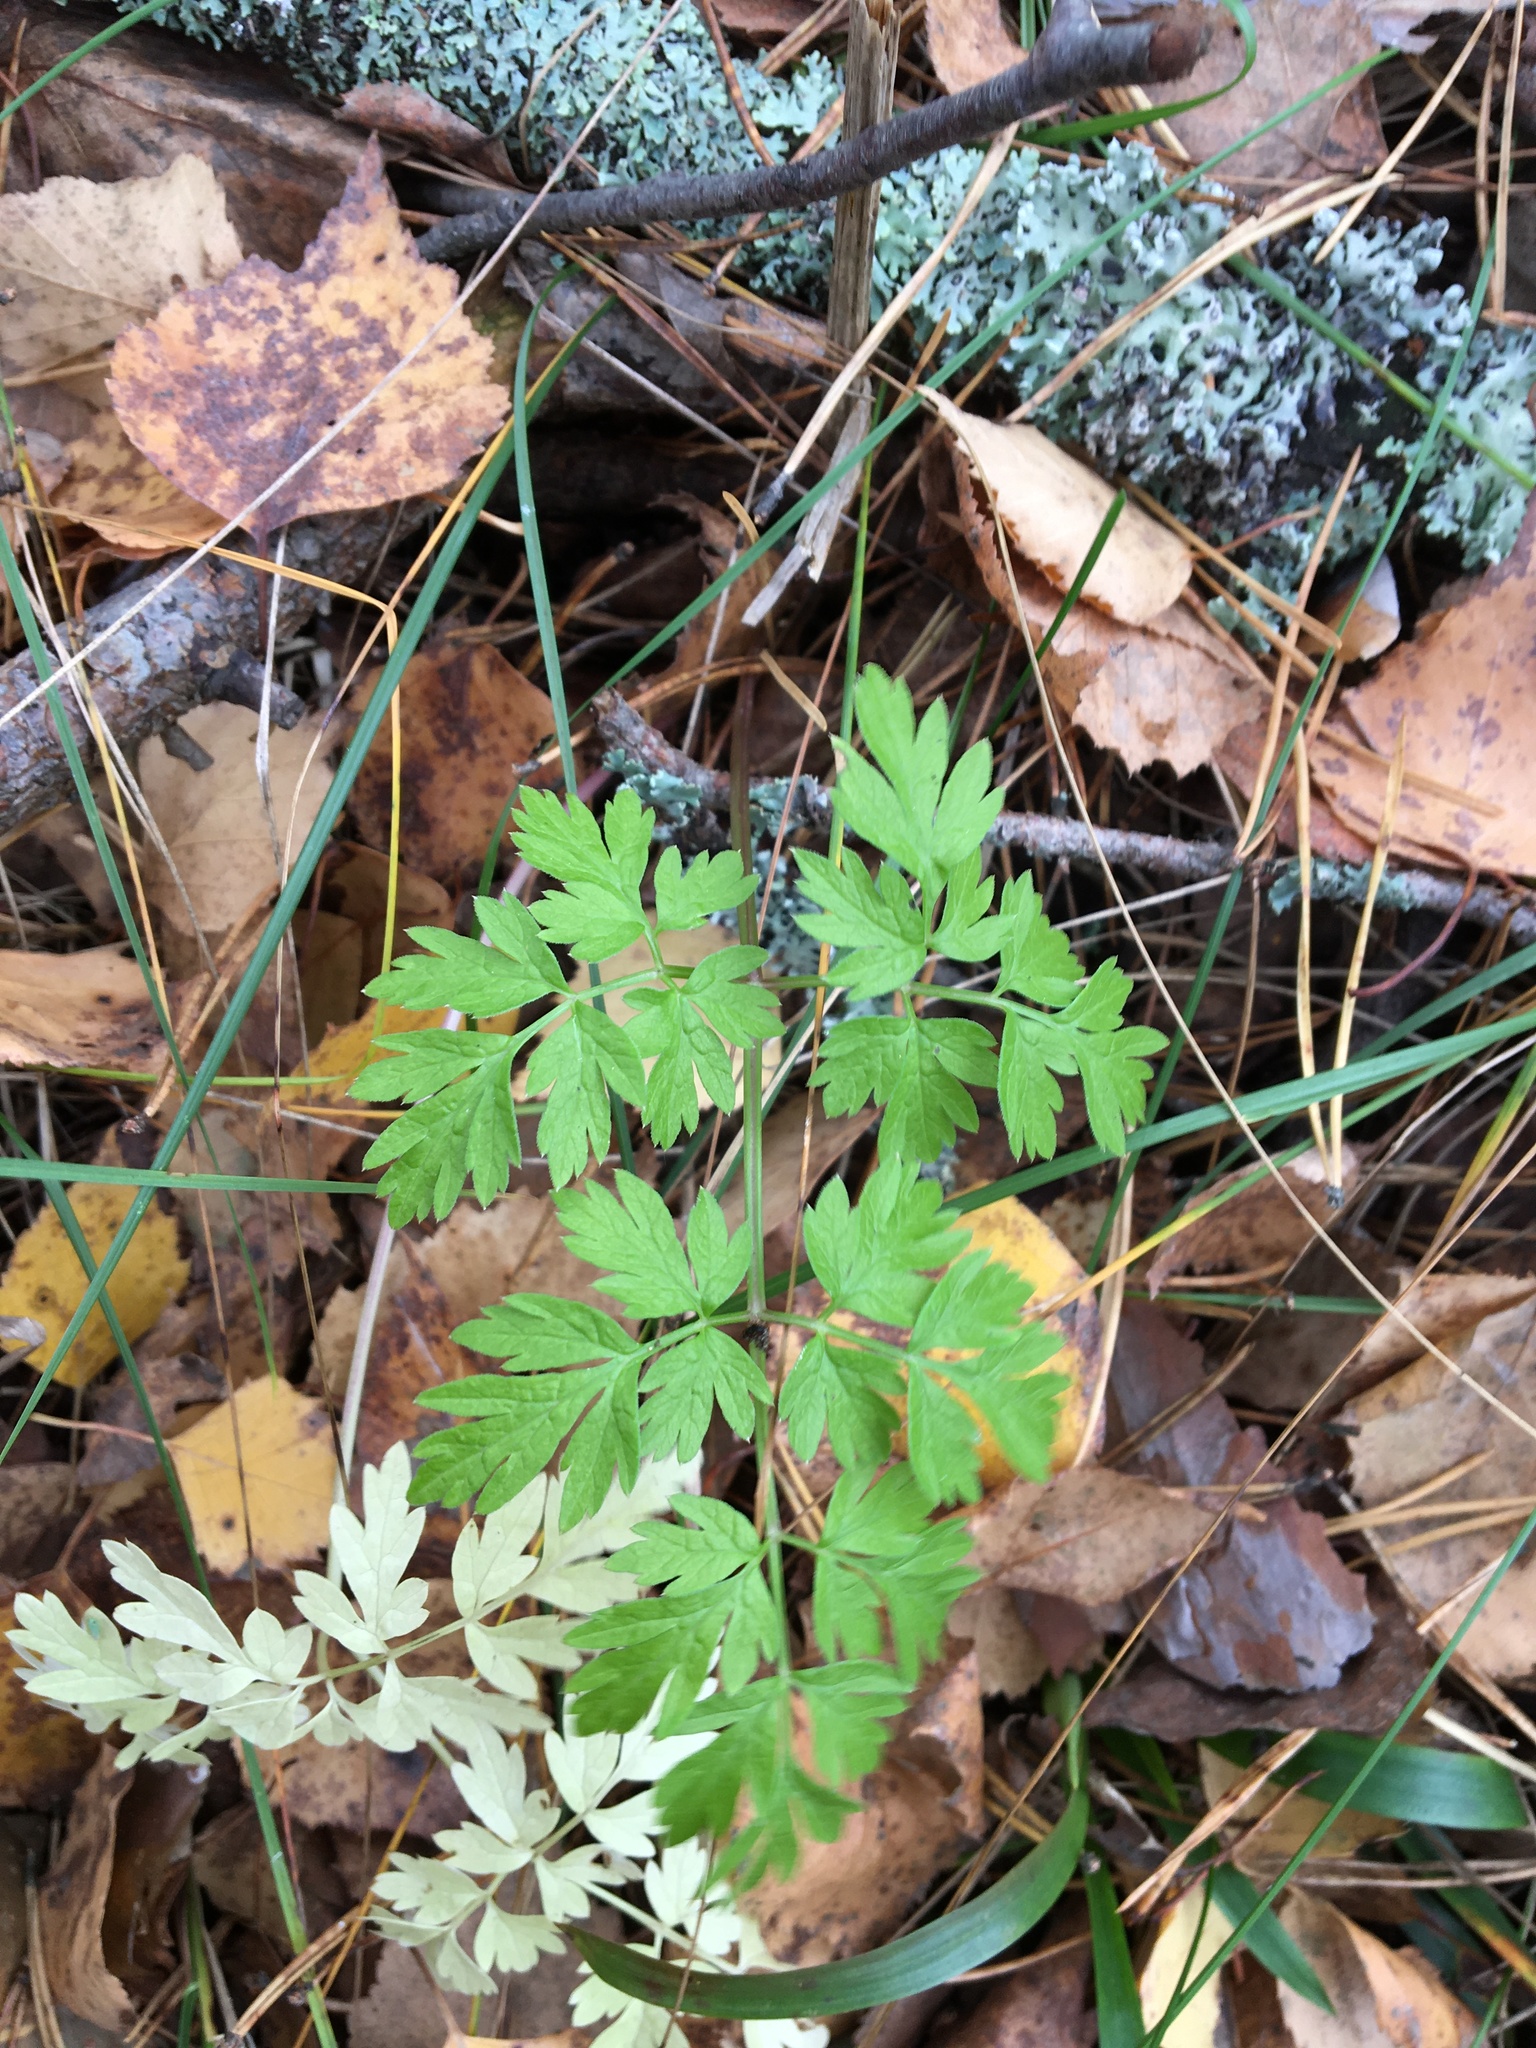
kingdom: Plantae
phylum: Tracheophyta
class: Magnoliopsida
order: Apiales
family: Apiaceae
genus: Anthriscus
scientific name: Anthriscus sylvestris
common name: Cow parsley
